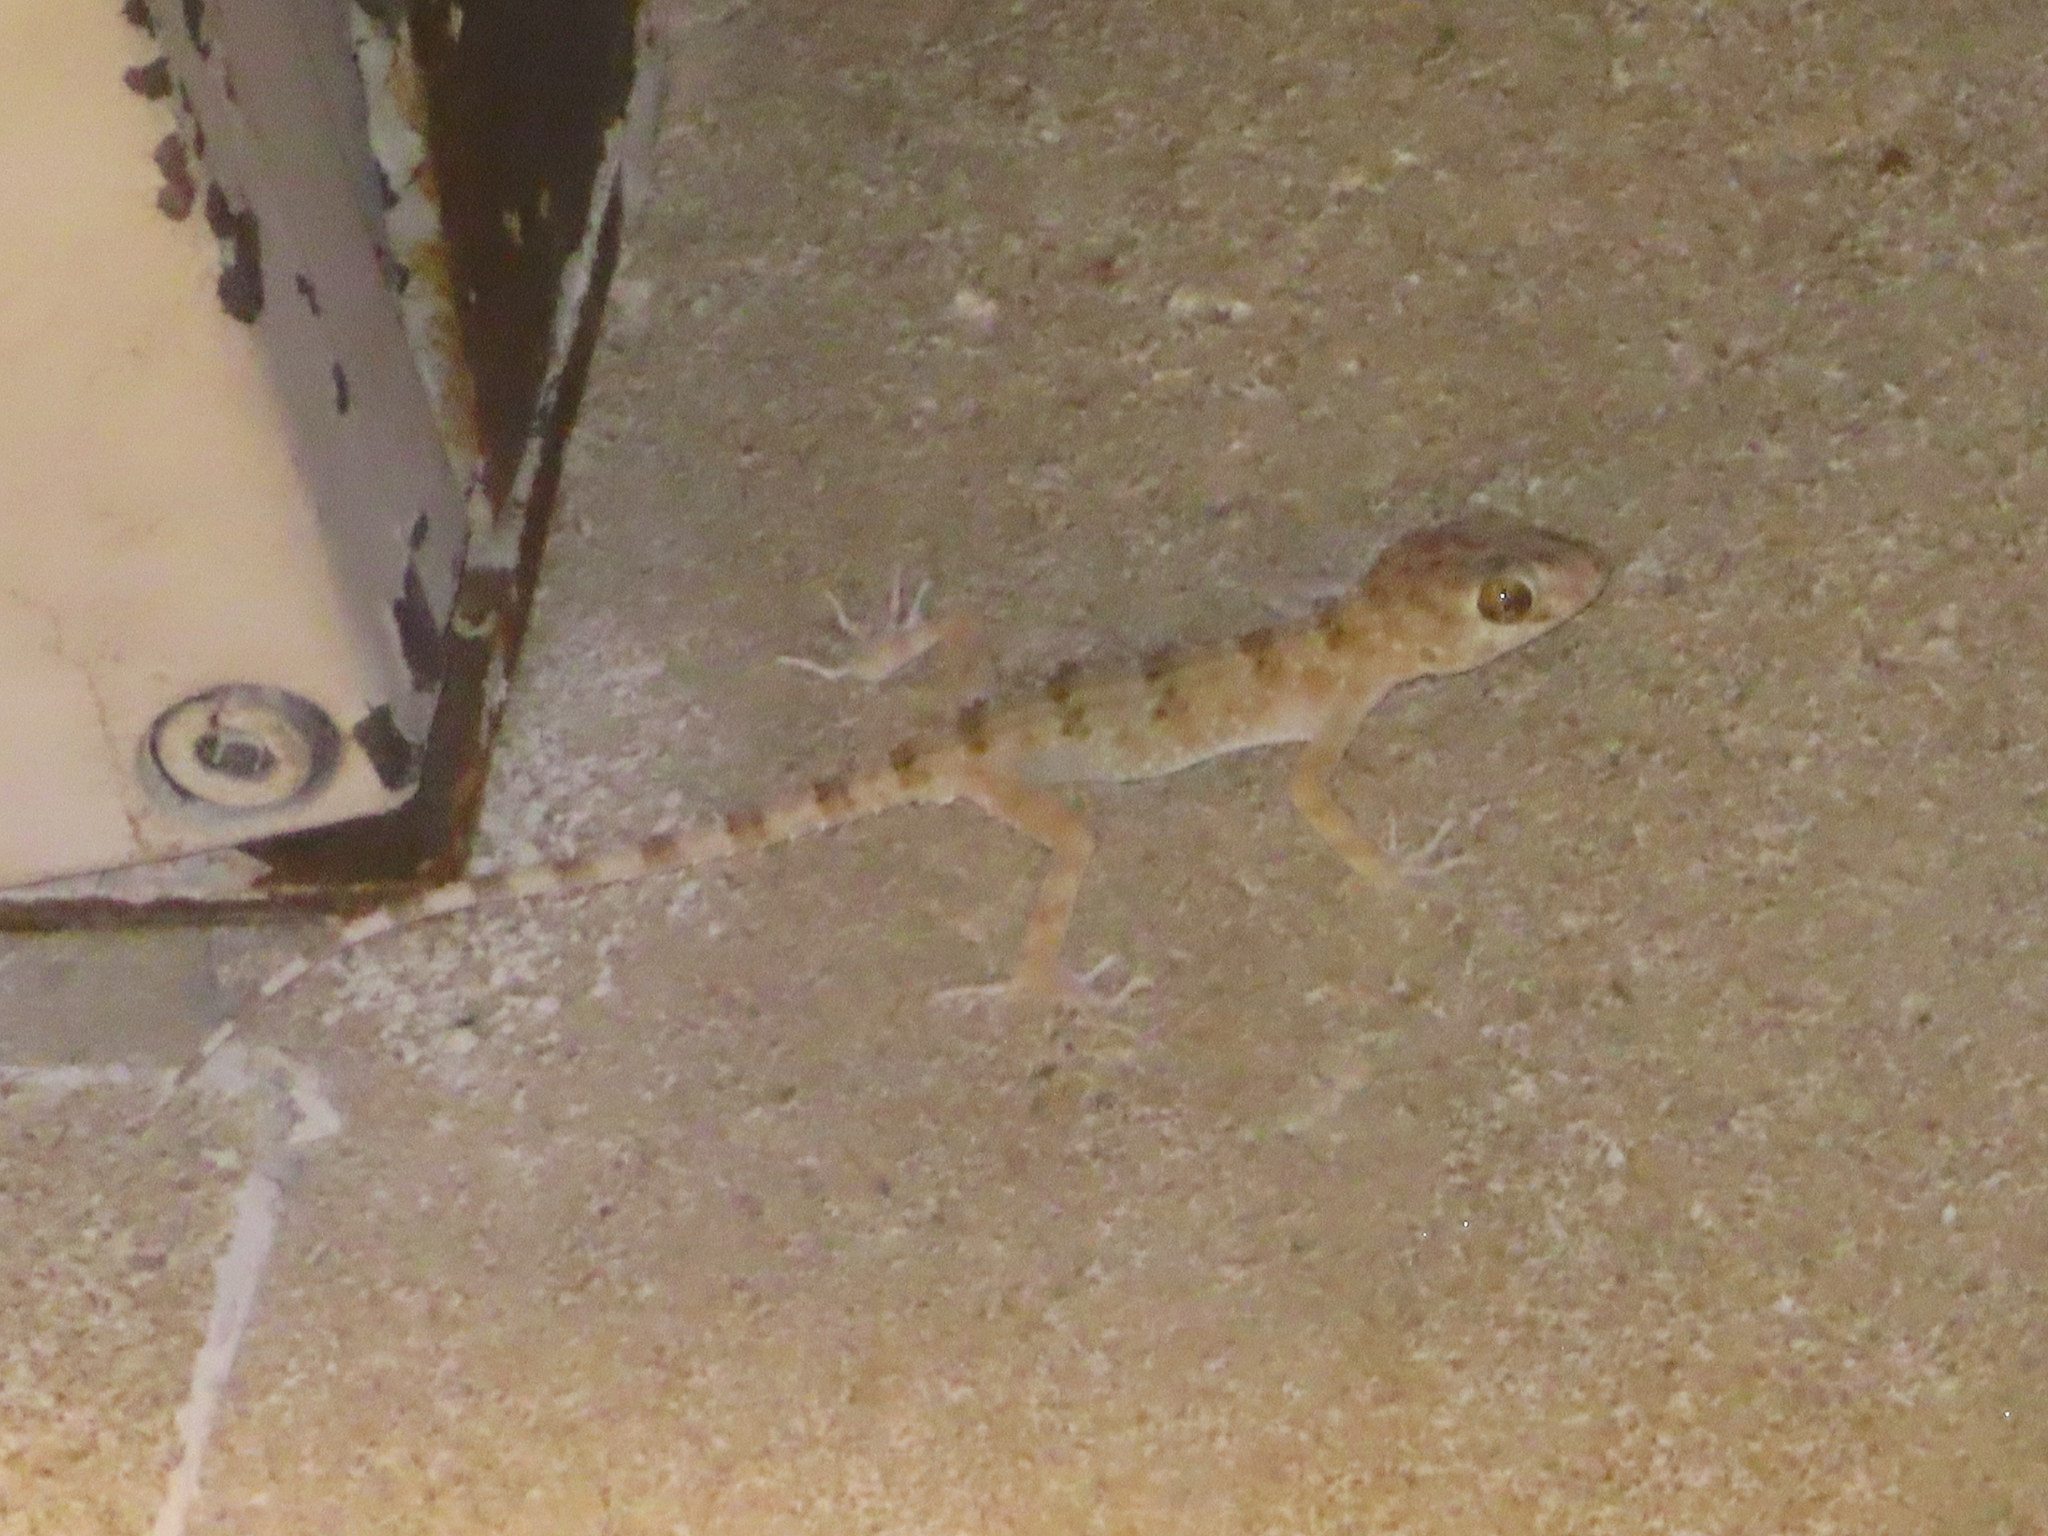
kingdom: Animalia
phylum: Chordata
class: Squamata
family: Gekkonidae
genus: Tenuidactylus
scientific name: Tenuidactylus caspius
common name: Caspian bent-toed gecko
